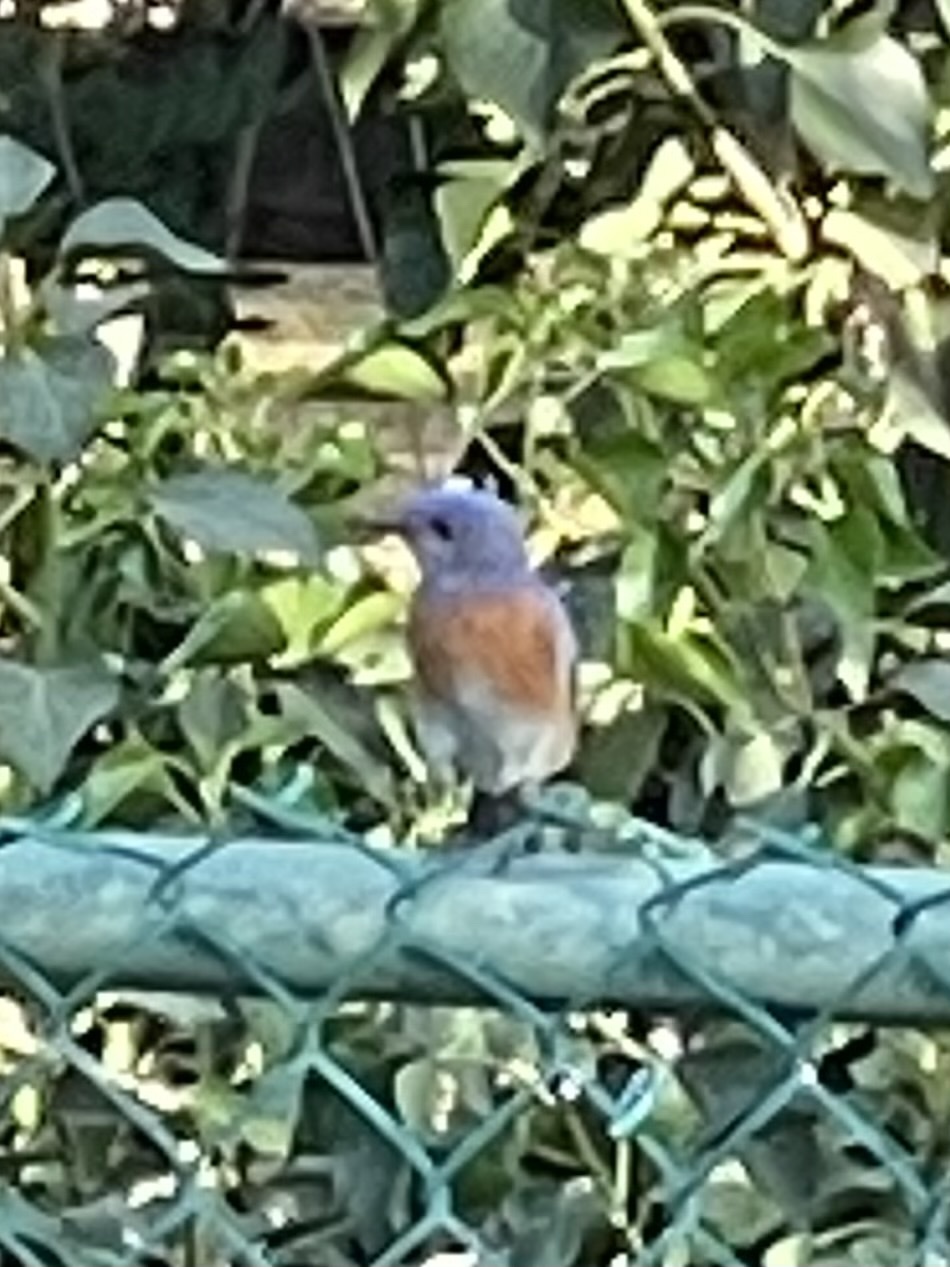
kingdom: Animalia
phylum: Chordata
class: Aves
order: Passeriformes
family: Turdidae
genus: Sialia
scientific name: Sialia mexicana
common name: Western bluebird
